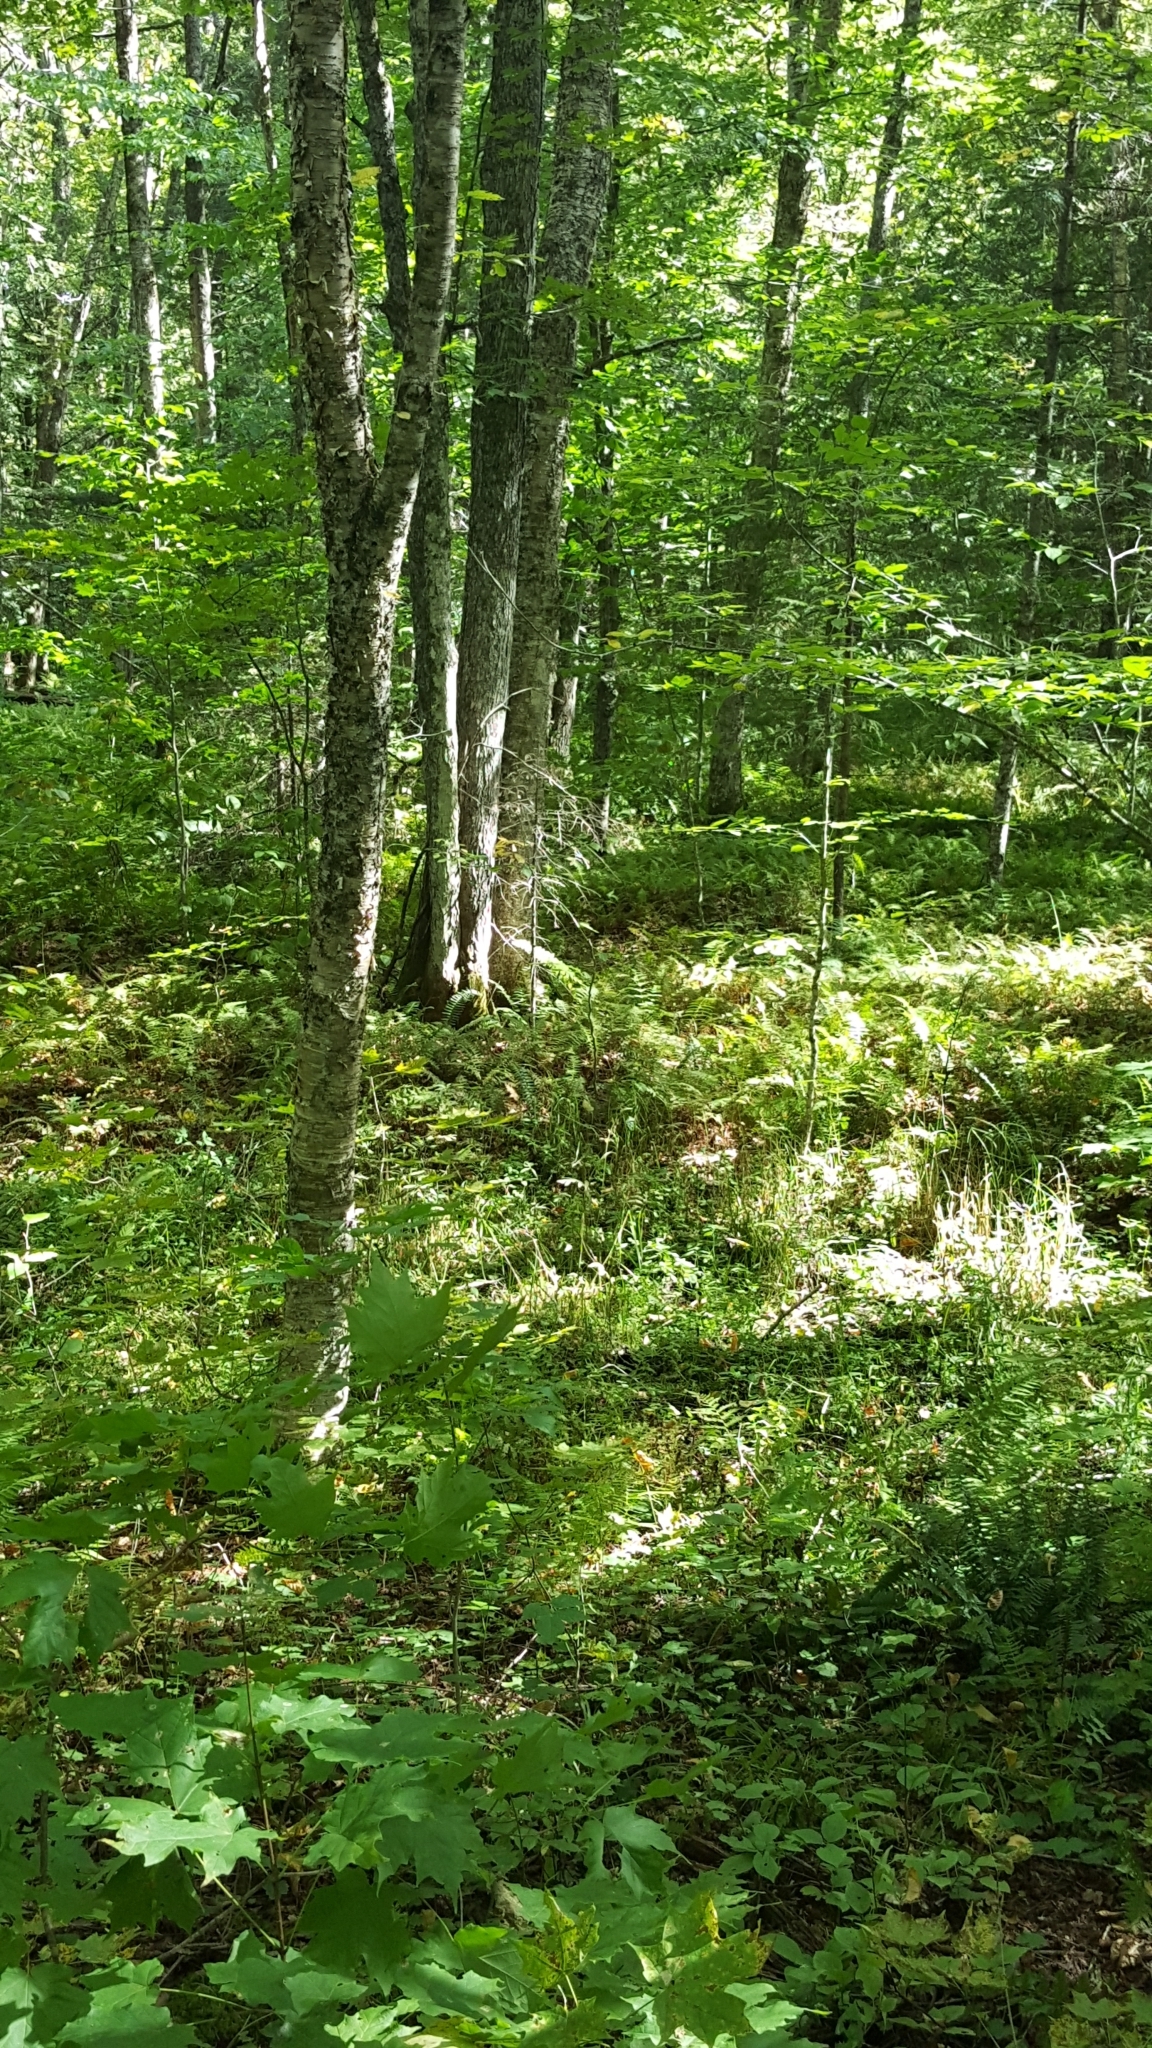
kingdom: Plantae
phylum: Tracheophyta
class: Magnoliopsida
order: Fagales
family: Betulaceae
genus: Betula
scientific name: Betula alleghaniensis
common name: Yellow birch
